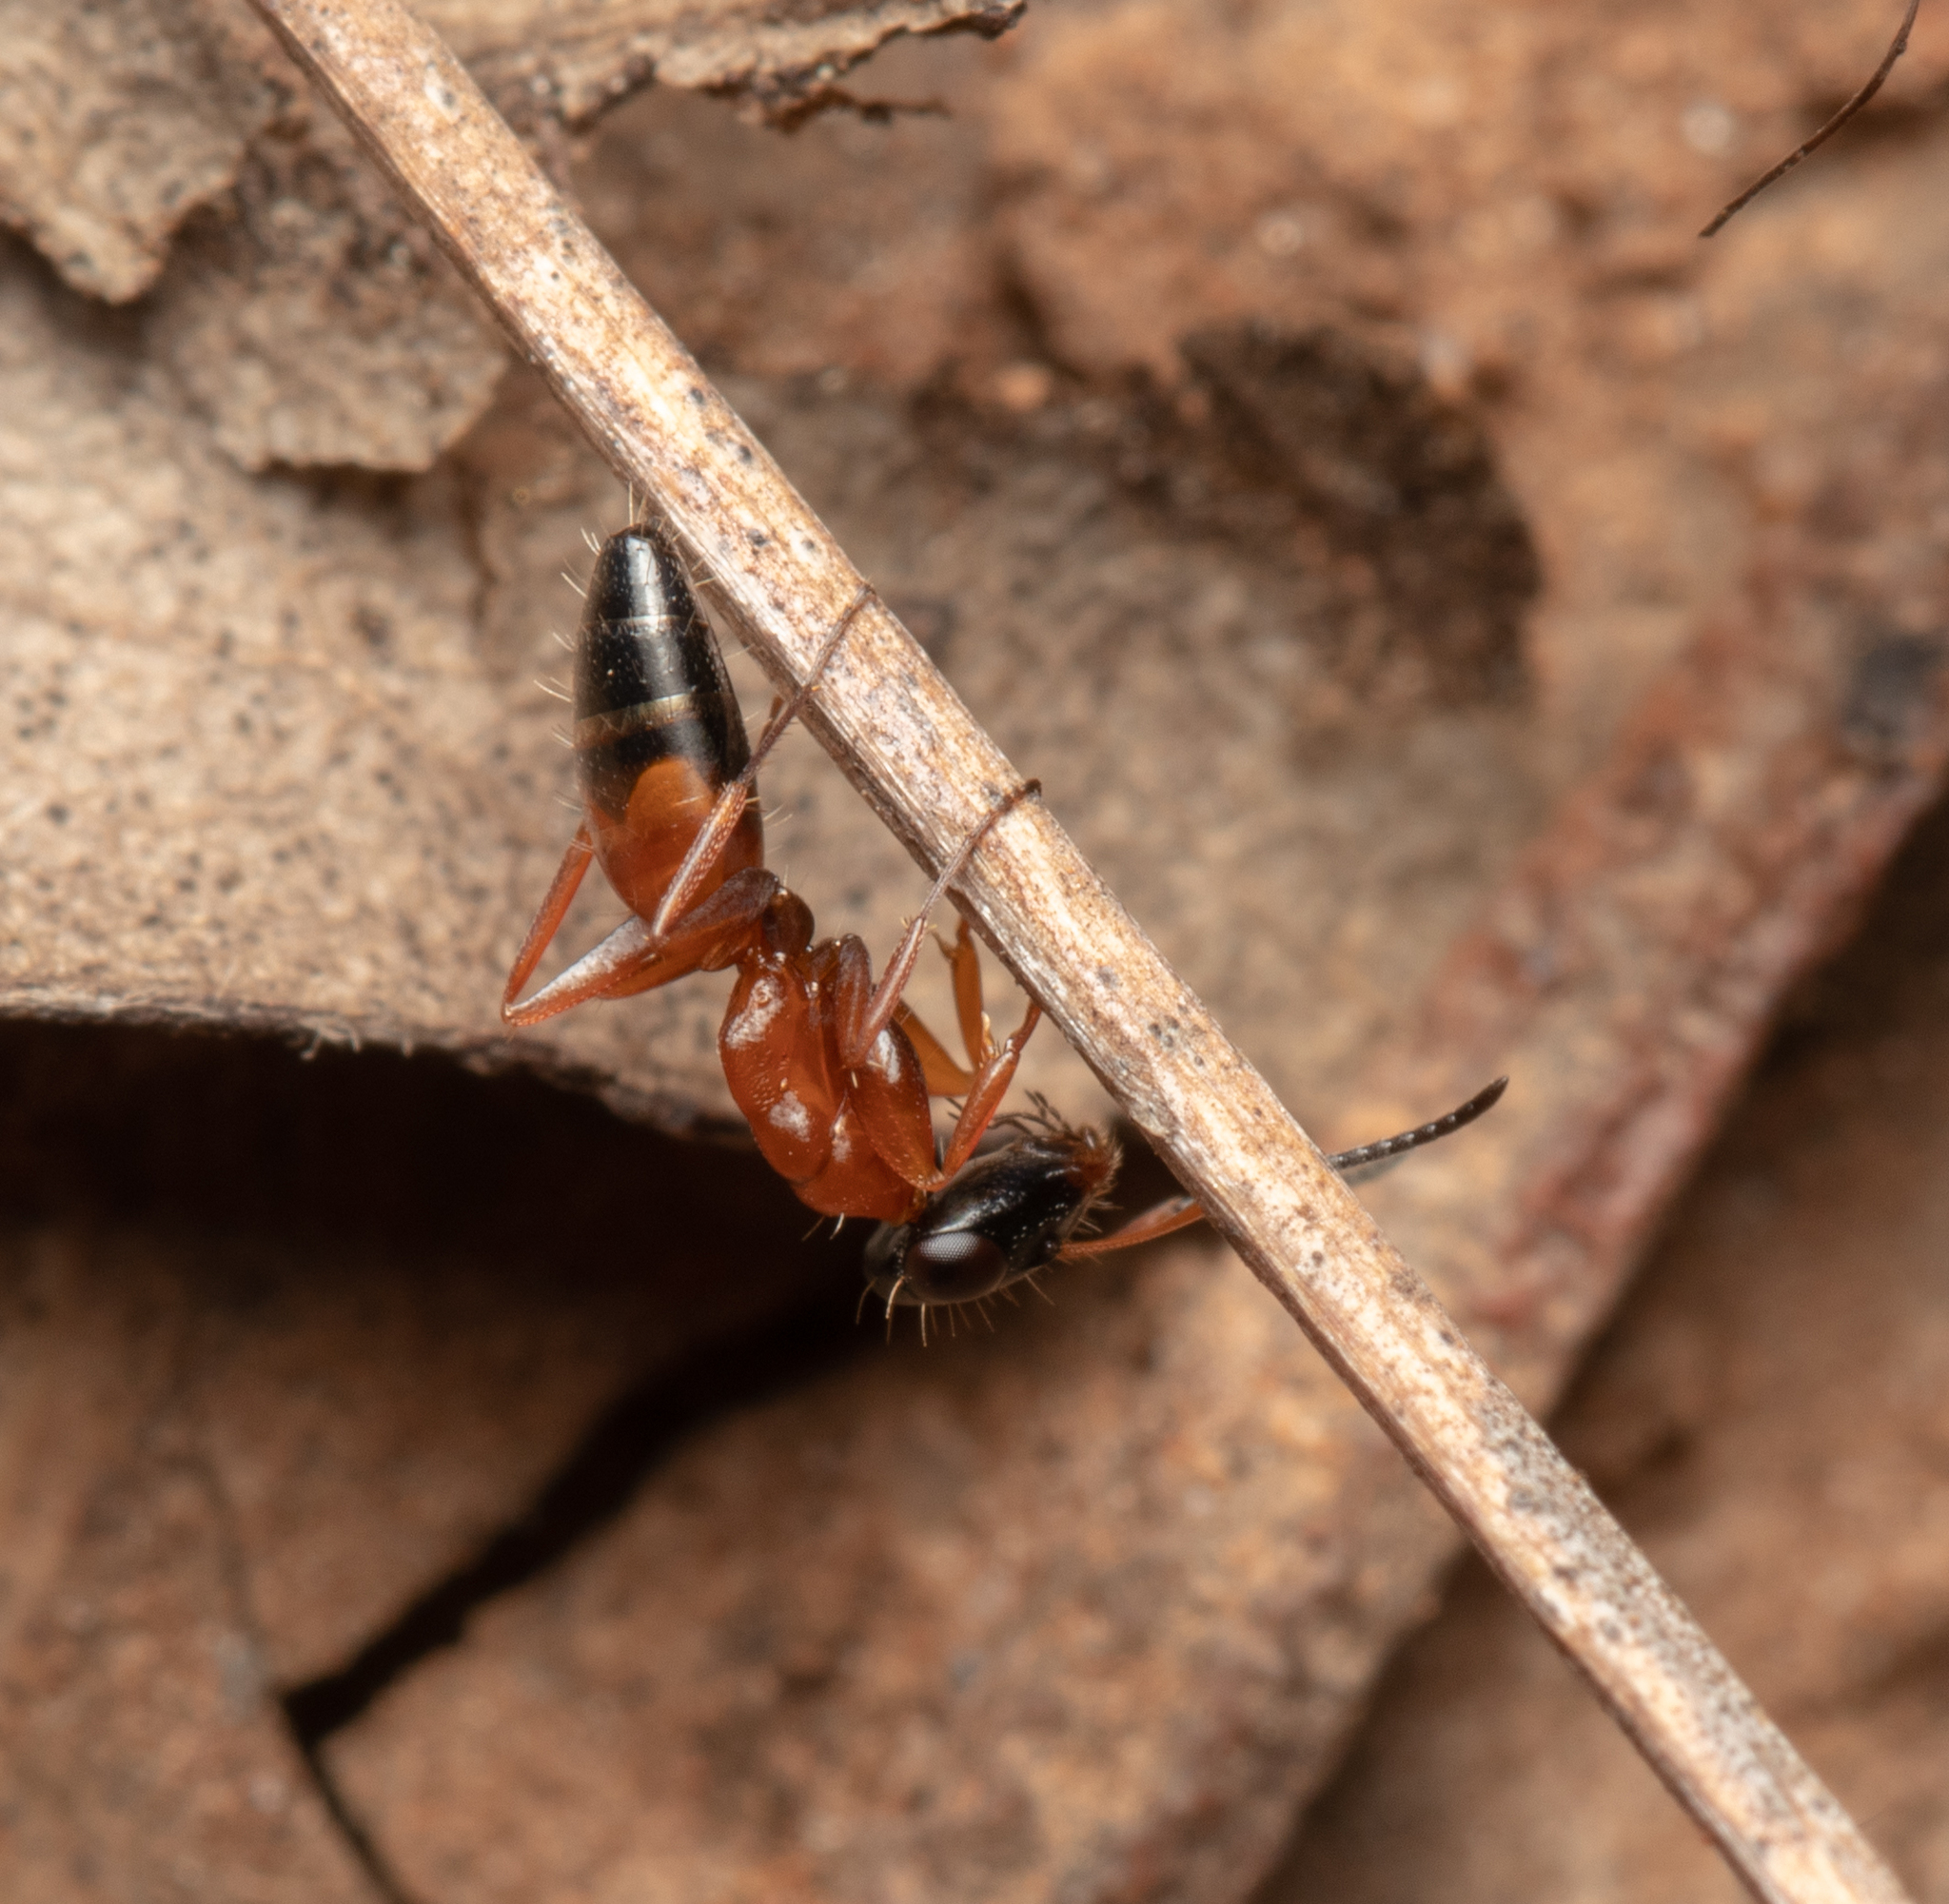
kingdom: Animalia
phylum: Arthropoda
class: Insecta
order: Hymenoptera
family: Formicidae
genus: Opisthopsis
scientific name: Opisthopsis rufithorax
